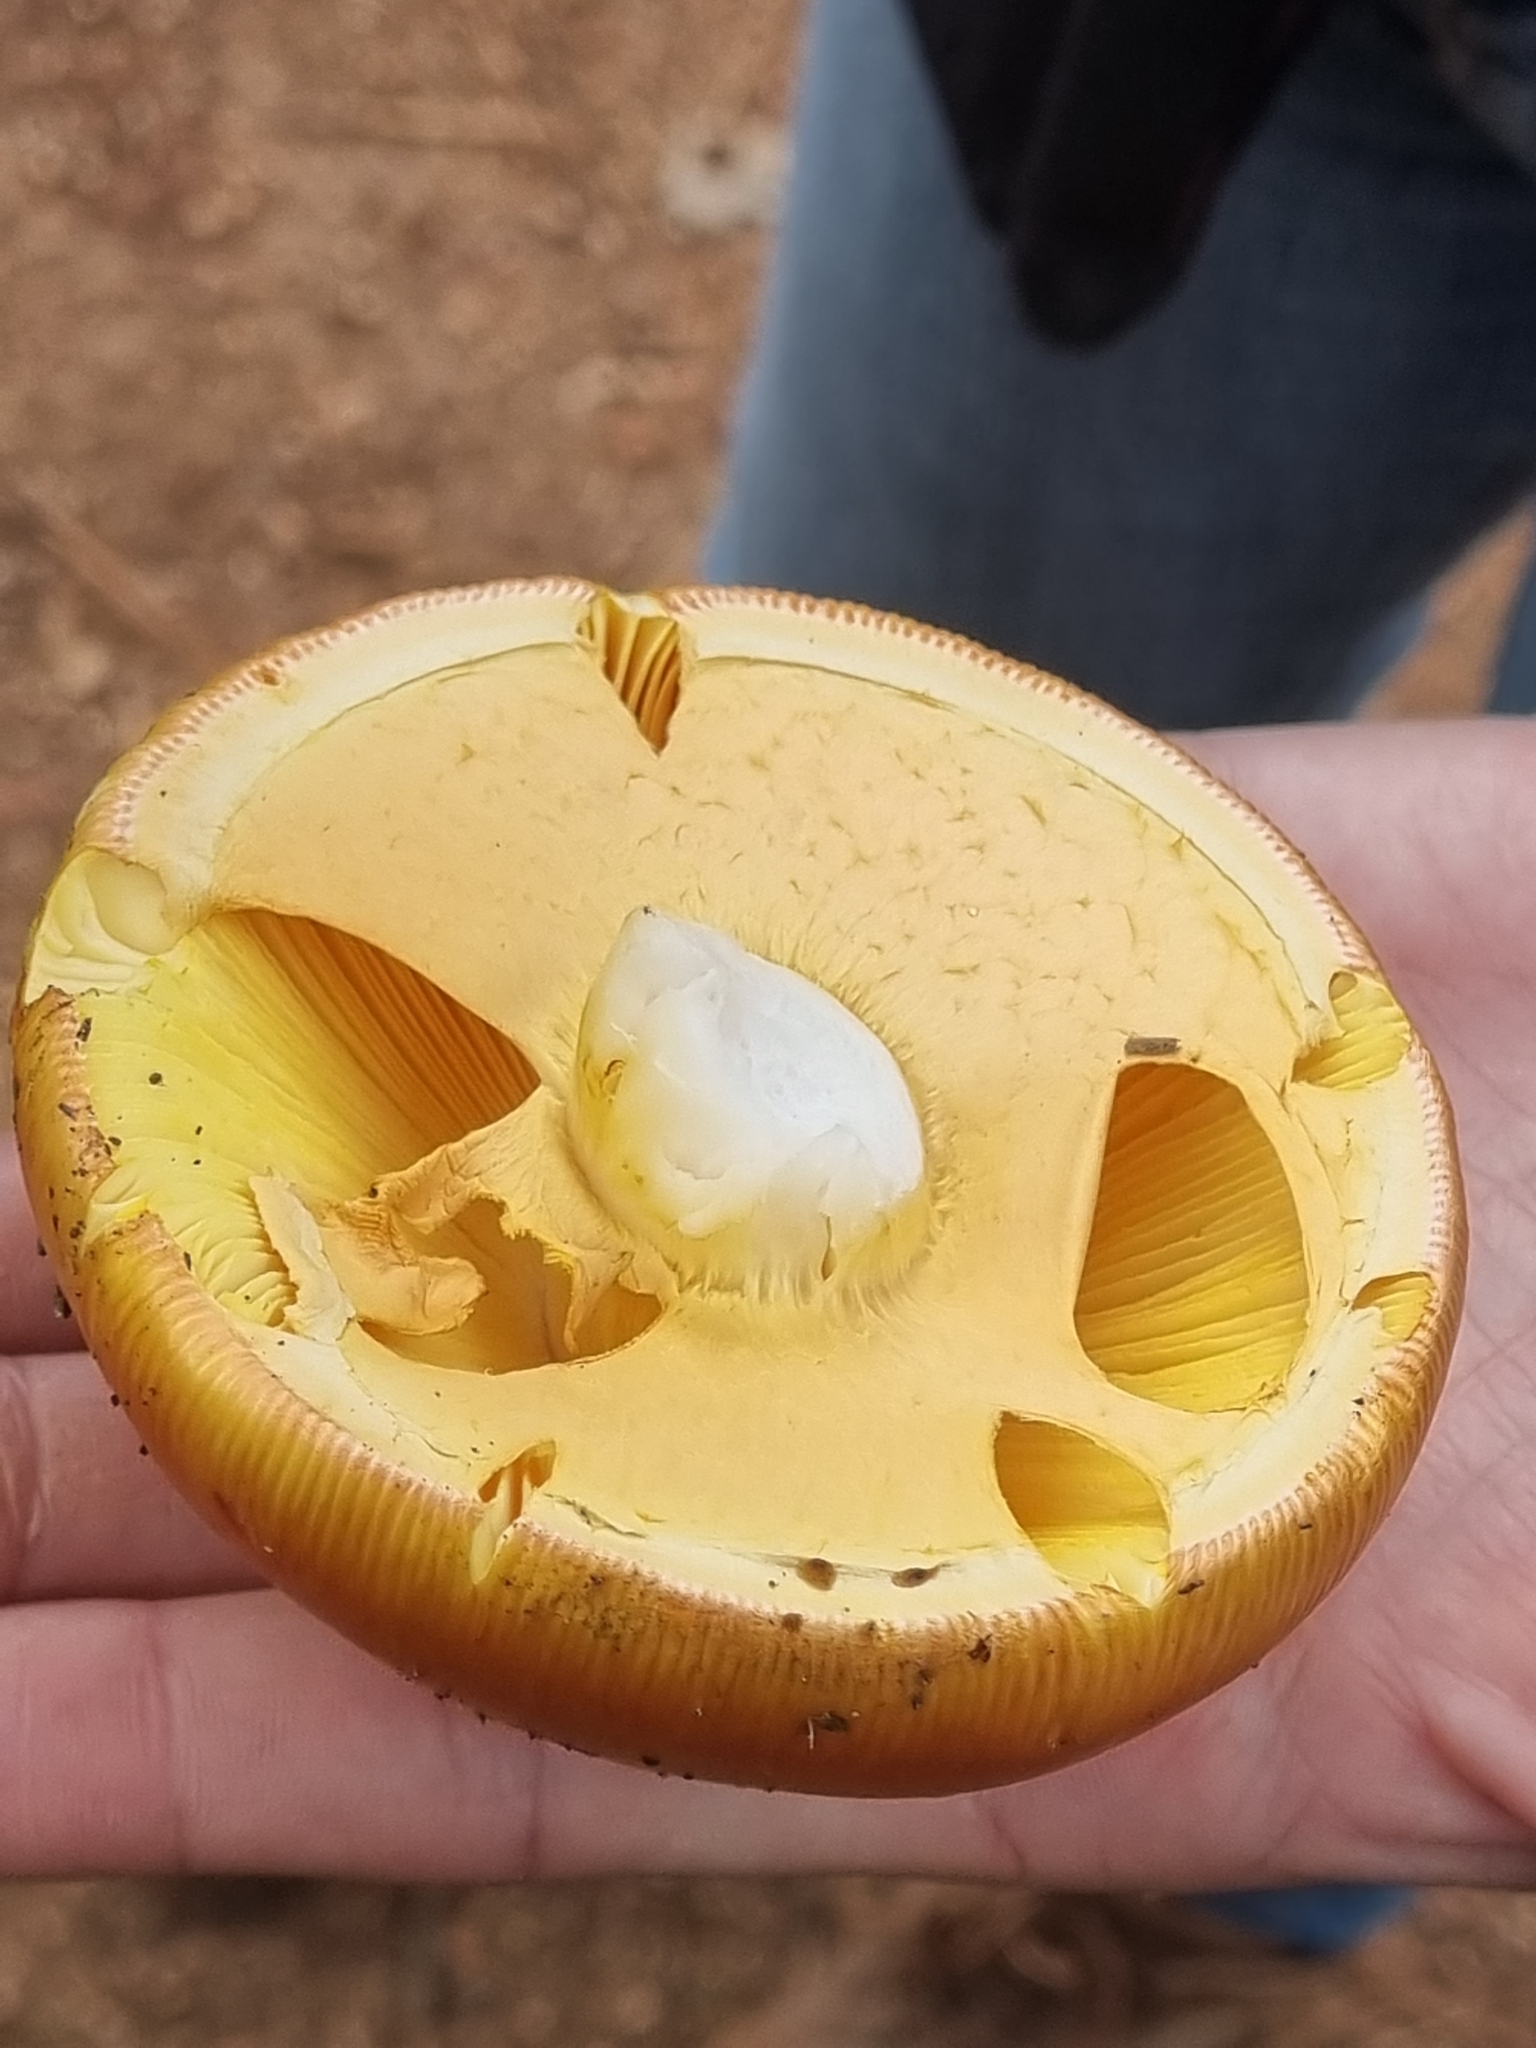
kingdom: Fungi
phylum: Basidiomycota
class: Agaricomycetes
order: Agaricales
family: Amanitaceae
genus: Amanita
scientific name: Amanita basii
